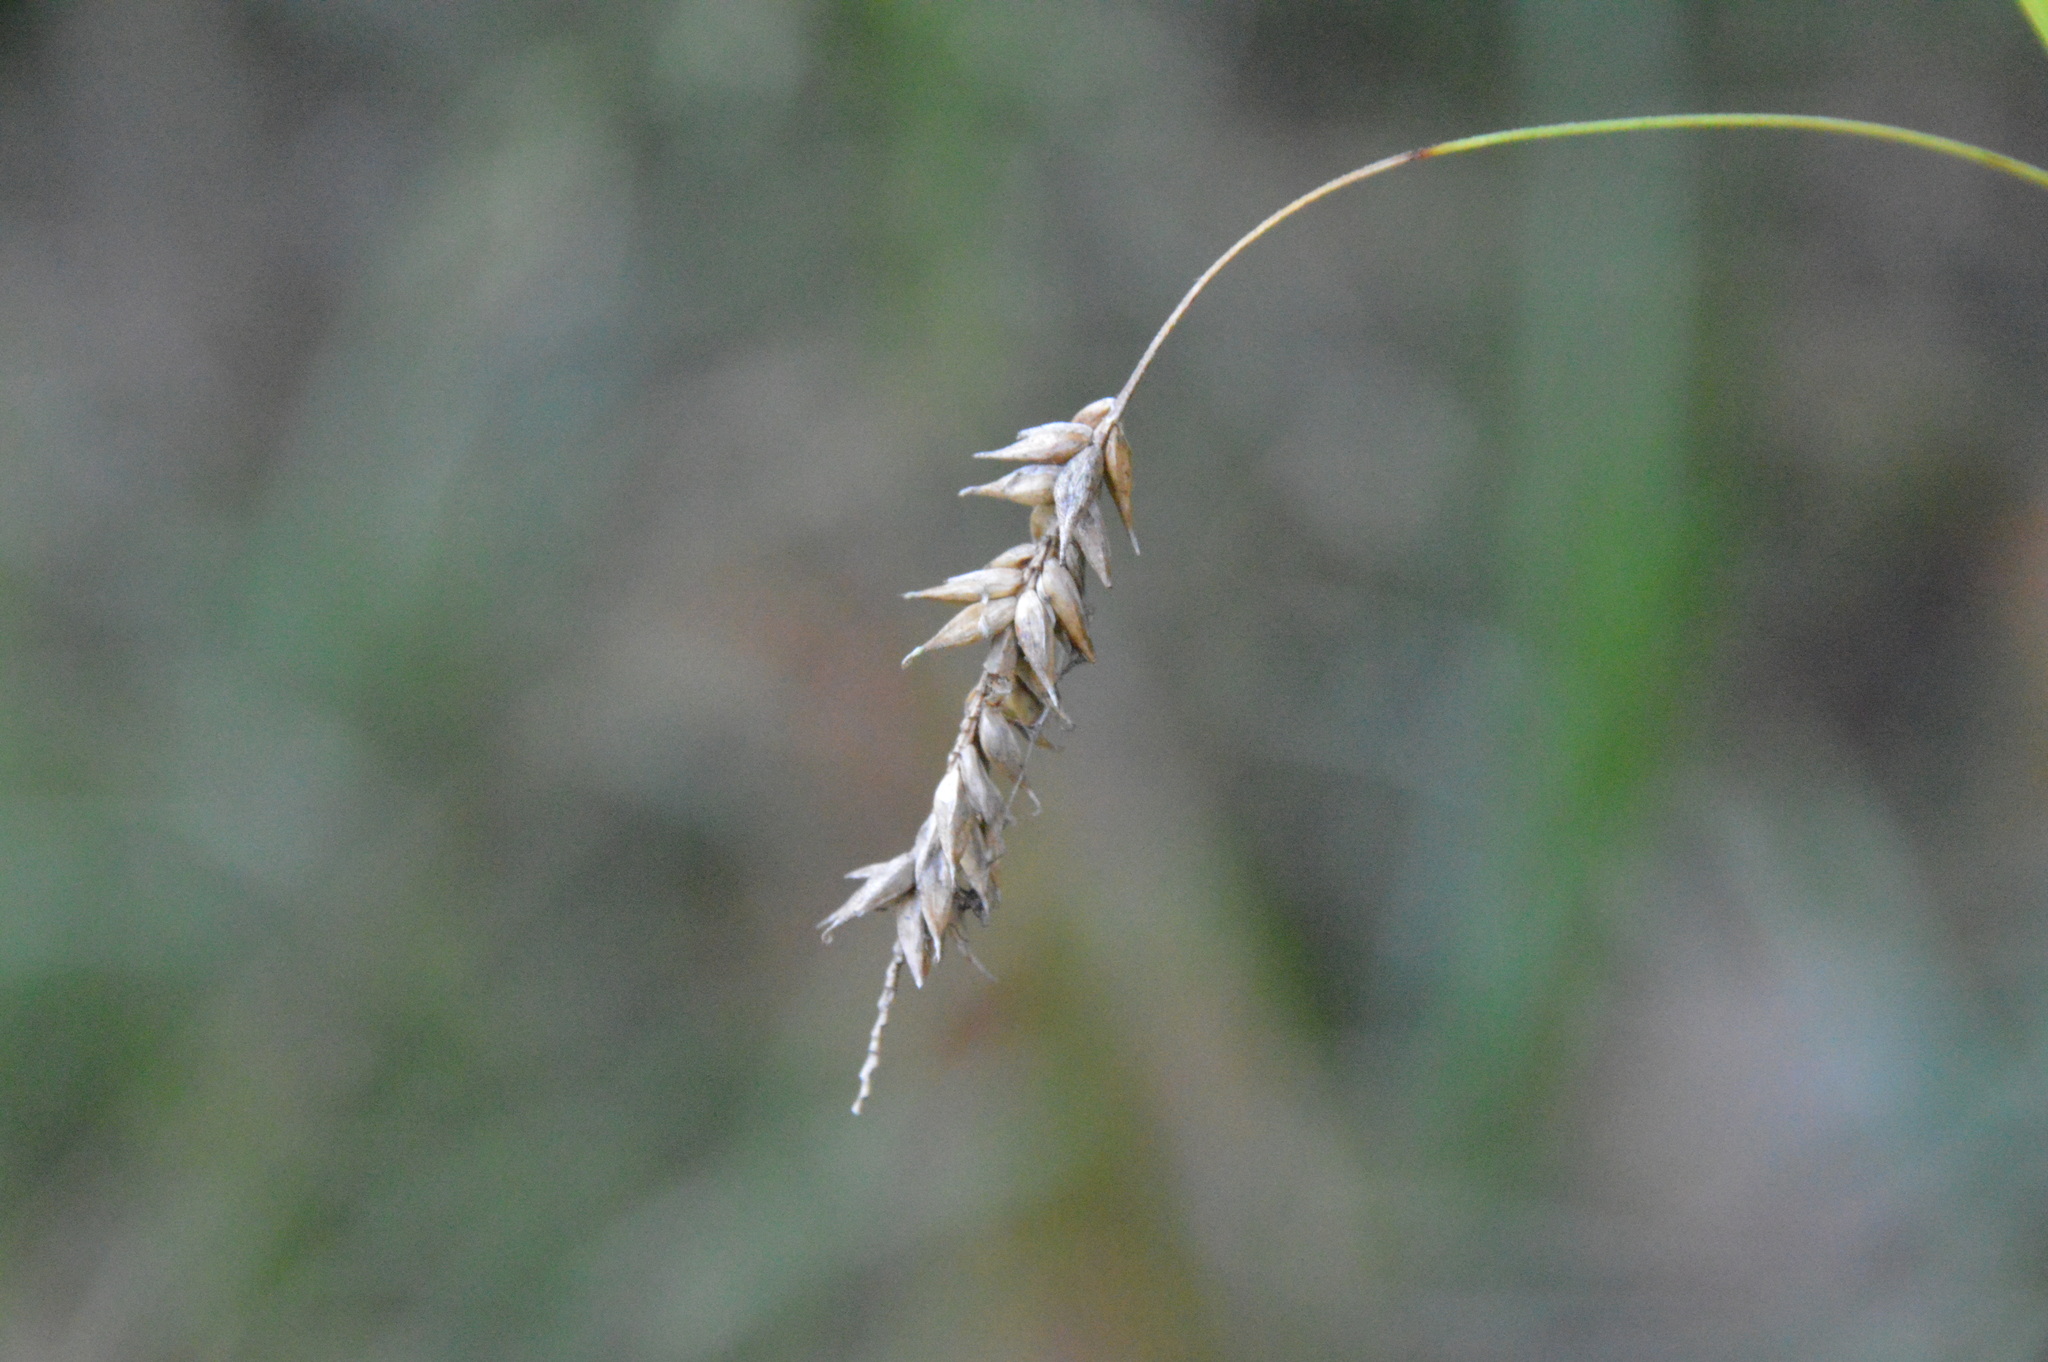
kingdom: Plantae
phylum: Tracheophyta
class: Liliopsida
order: Poales
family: Cyperaceae
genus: Carex
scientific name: Carex cherokeensis
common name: Cherokee sedge
